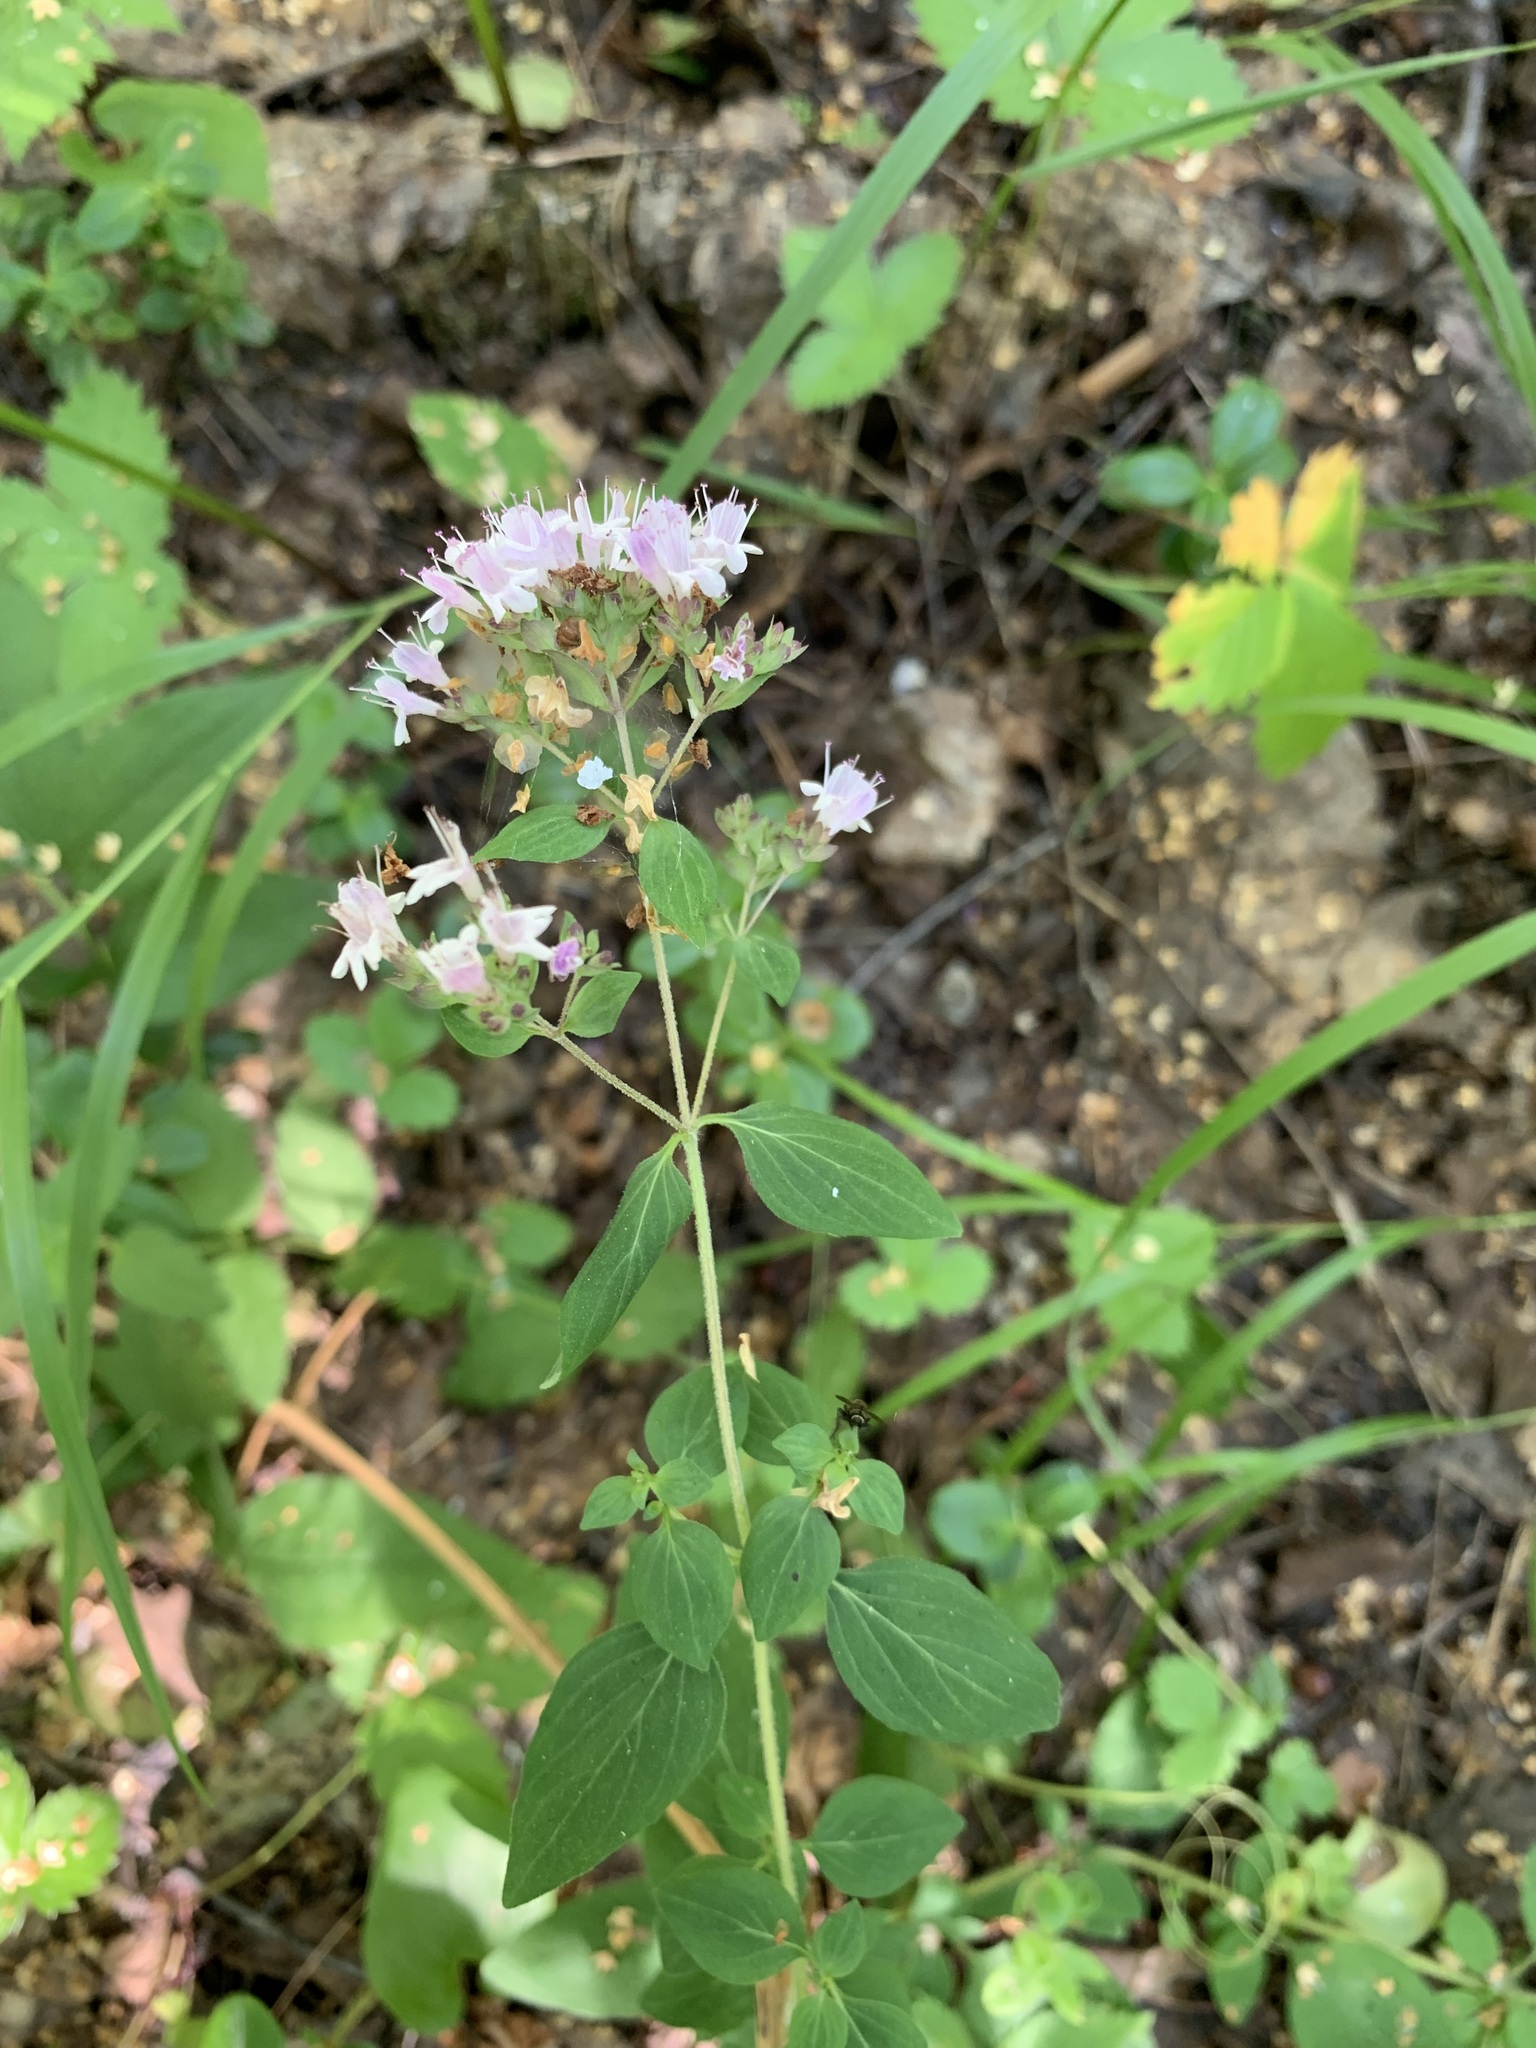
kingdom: Plantae
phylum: Tracheophyta
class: Magnoliopsida
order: Lamiales
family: Lamiaceae
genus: Origanum
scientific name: Origanum vulgare
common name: Wild marjoram
